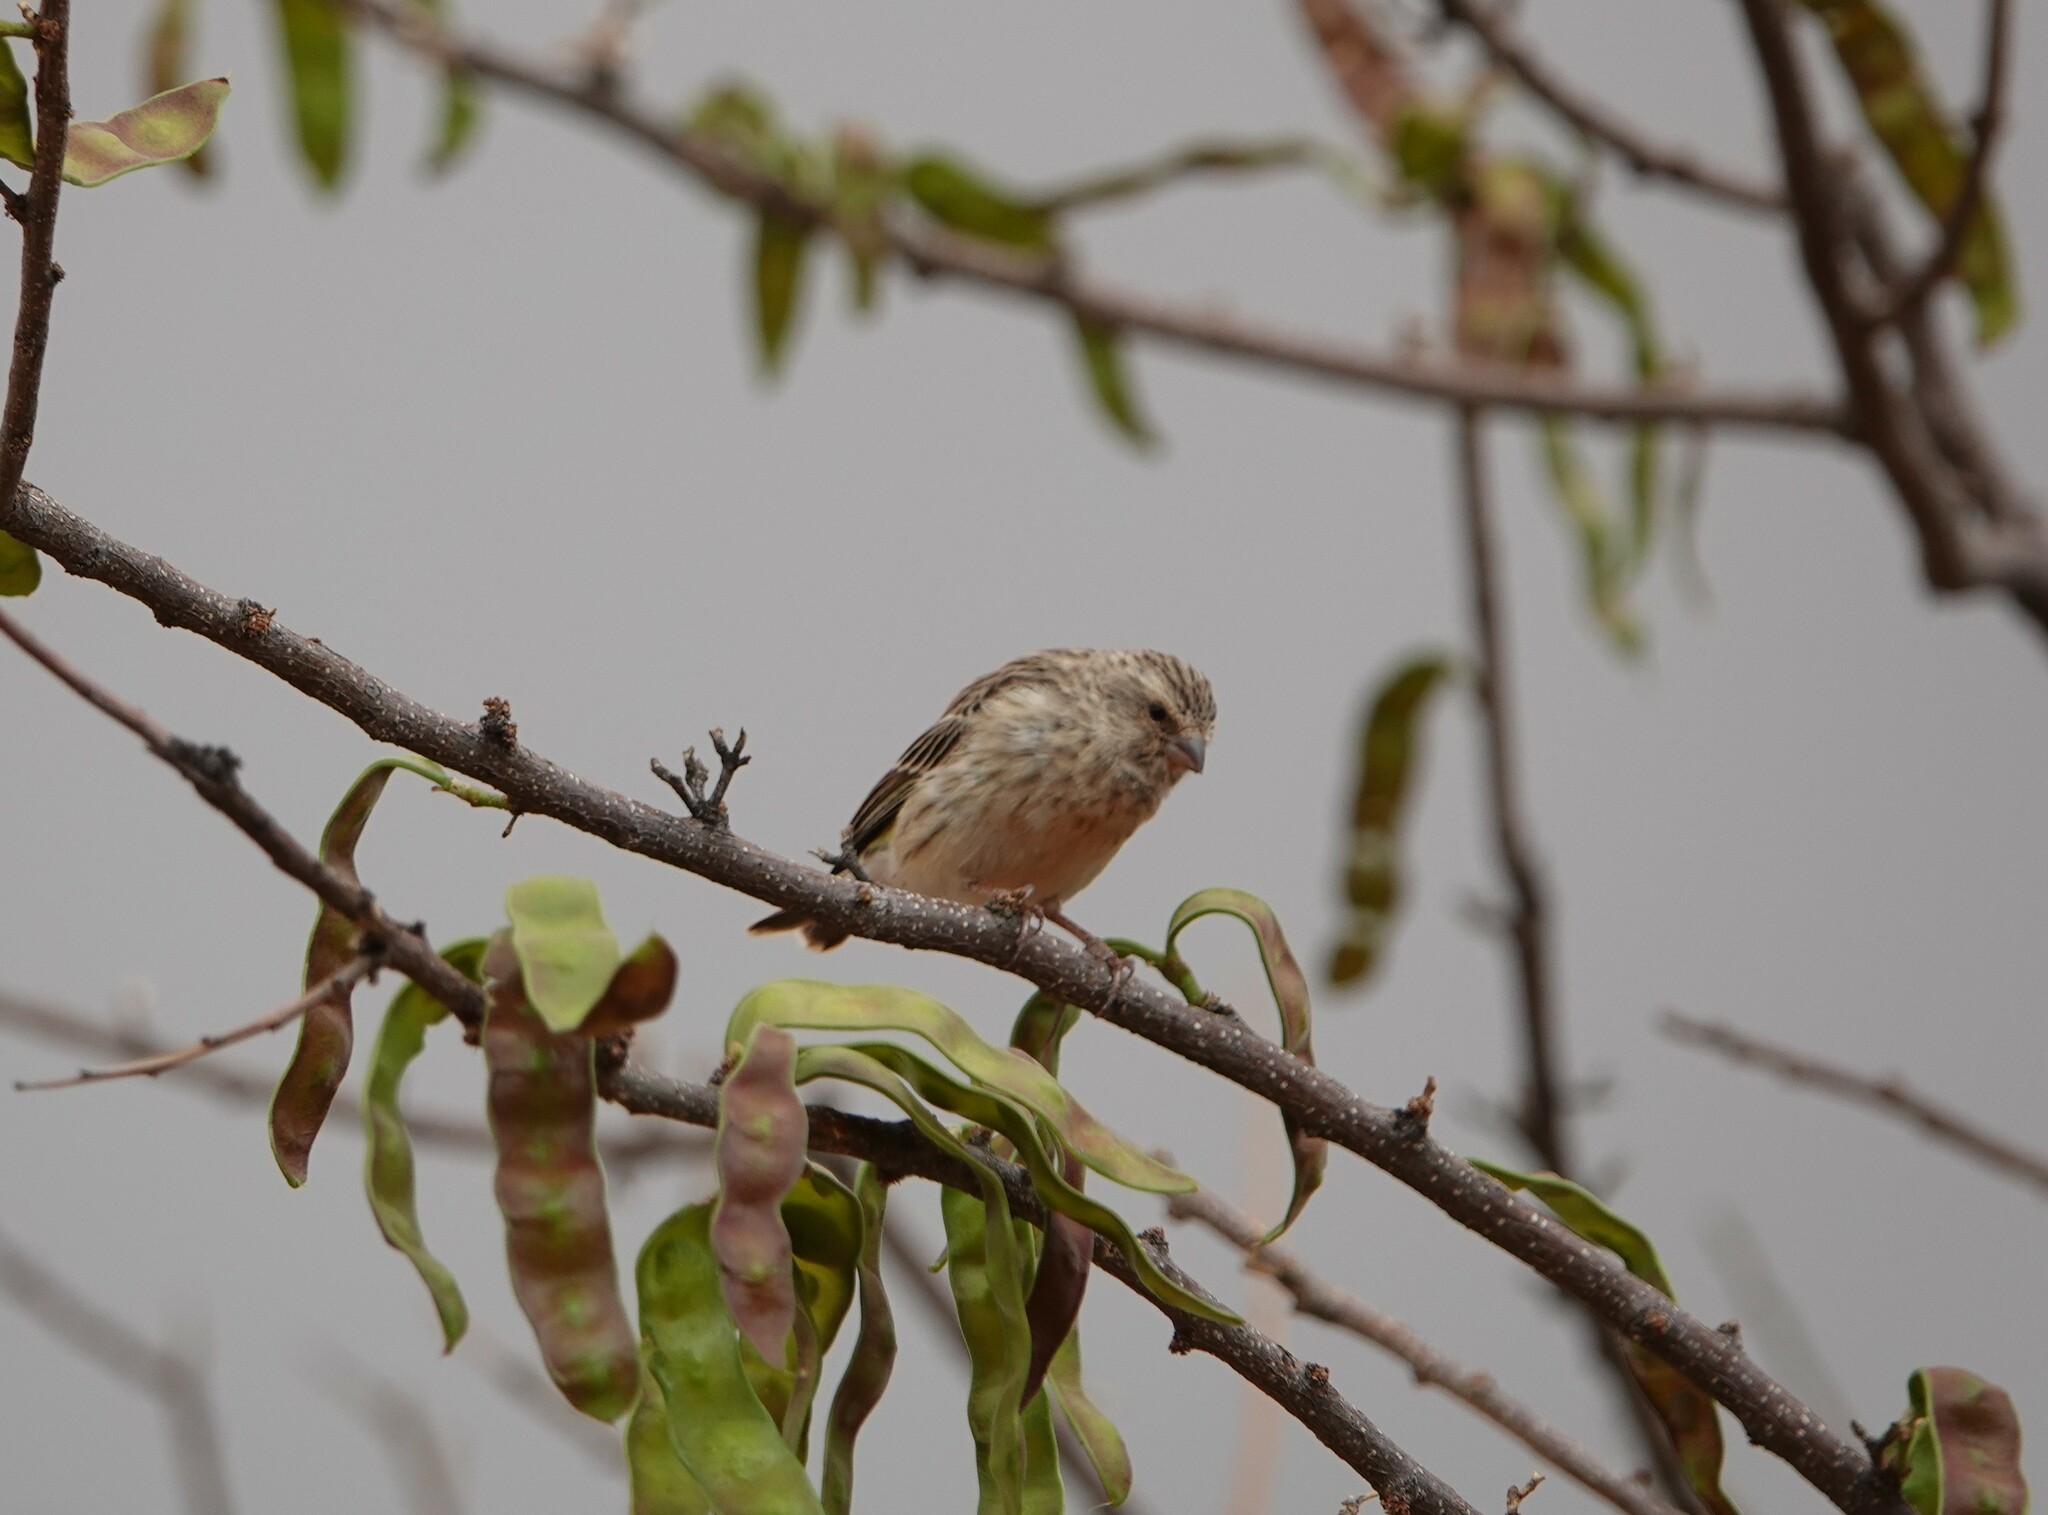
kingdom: Animalia
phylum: Chordata
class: Aves
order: Passeriformes
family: Fringillidae
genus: Crithagra
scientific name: Crithagra atrogularis
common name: Black-throated canary
